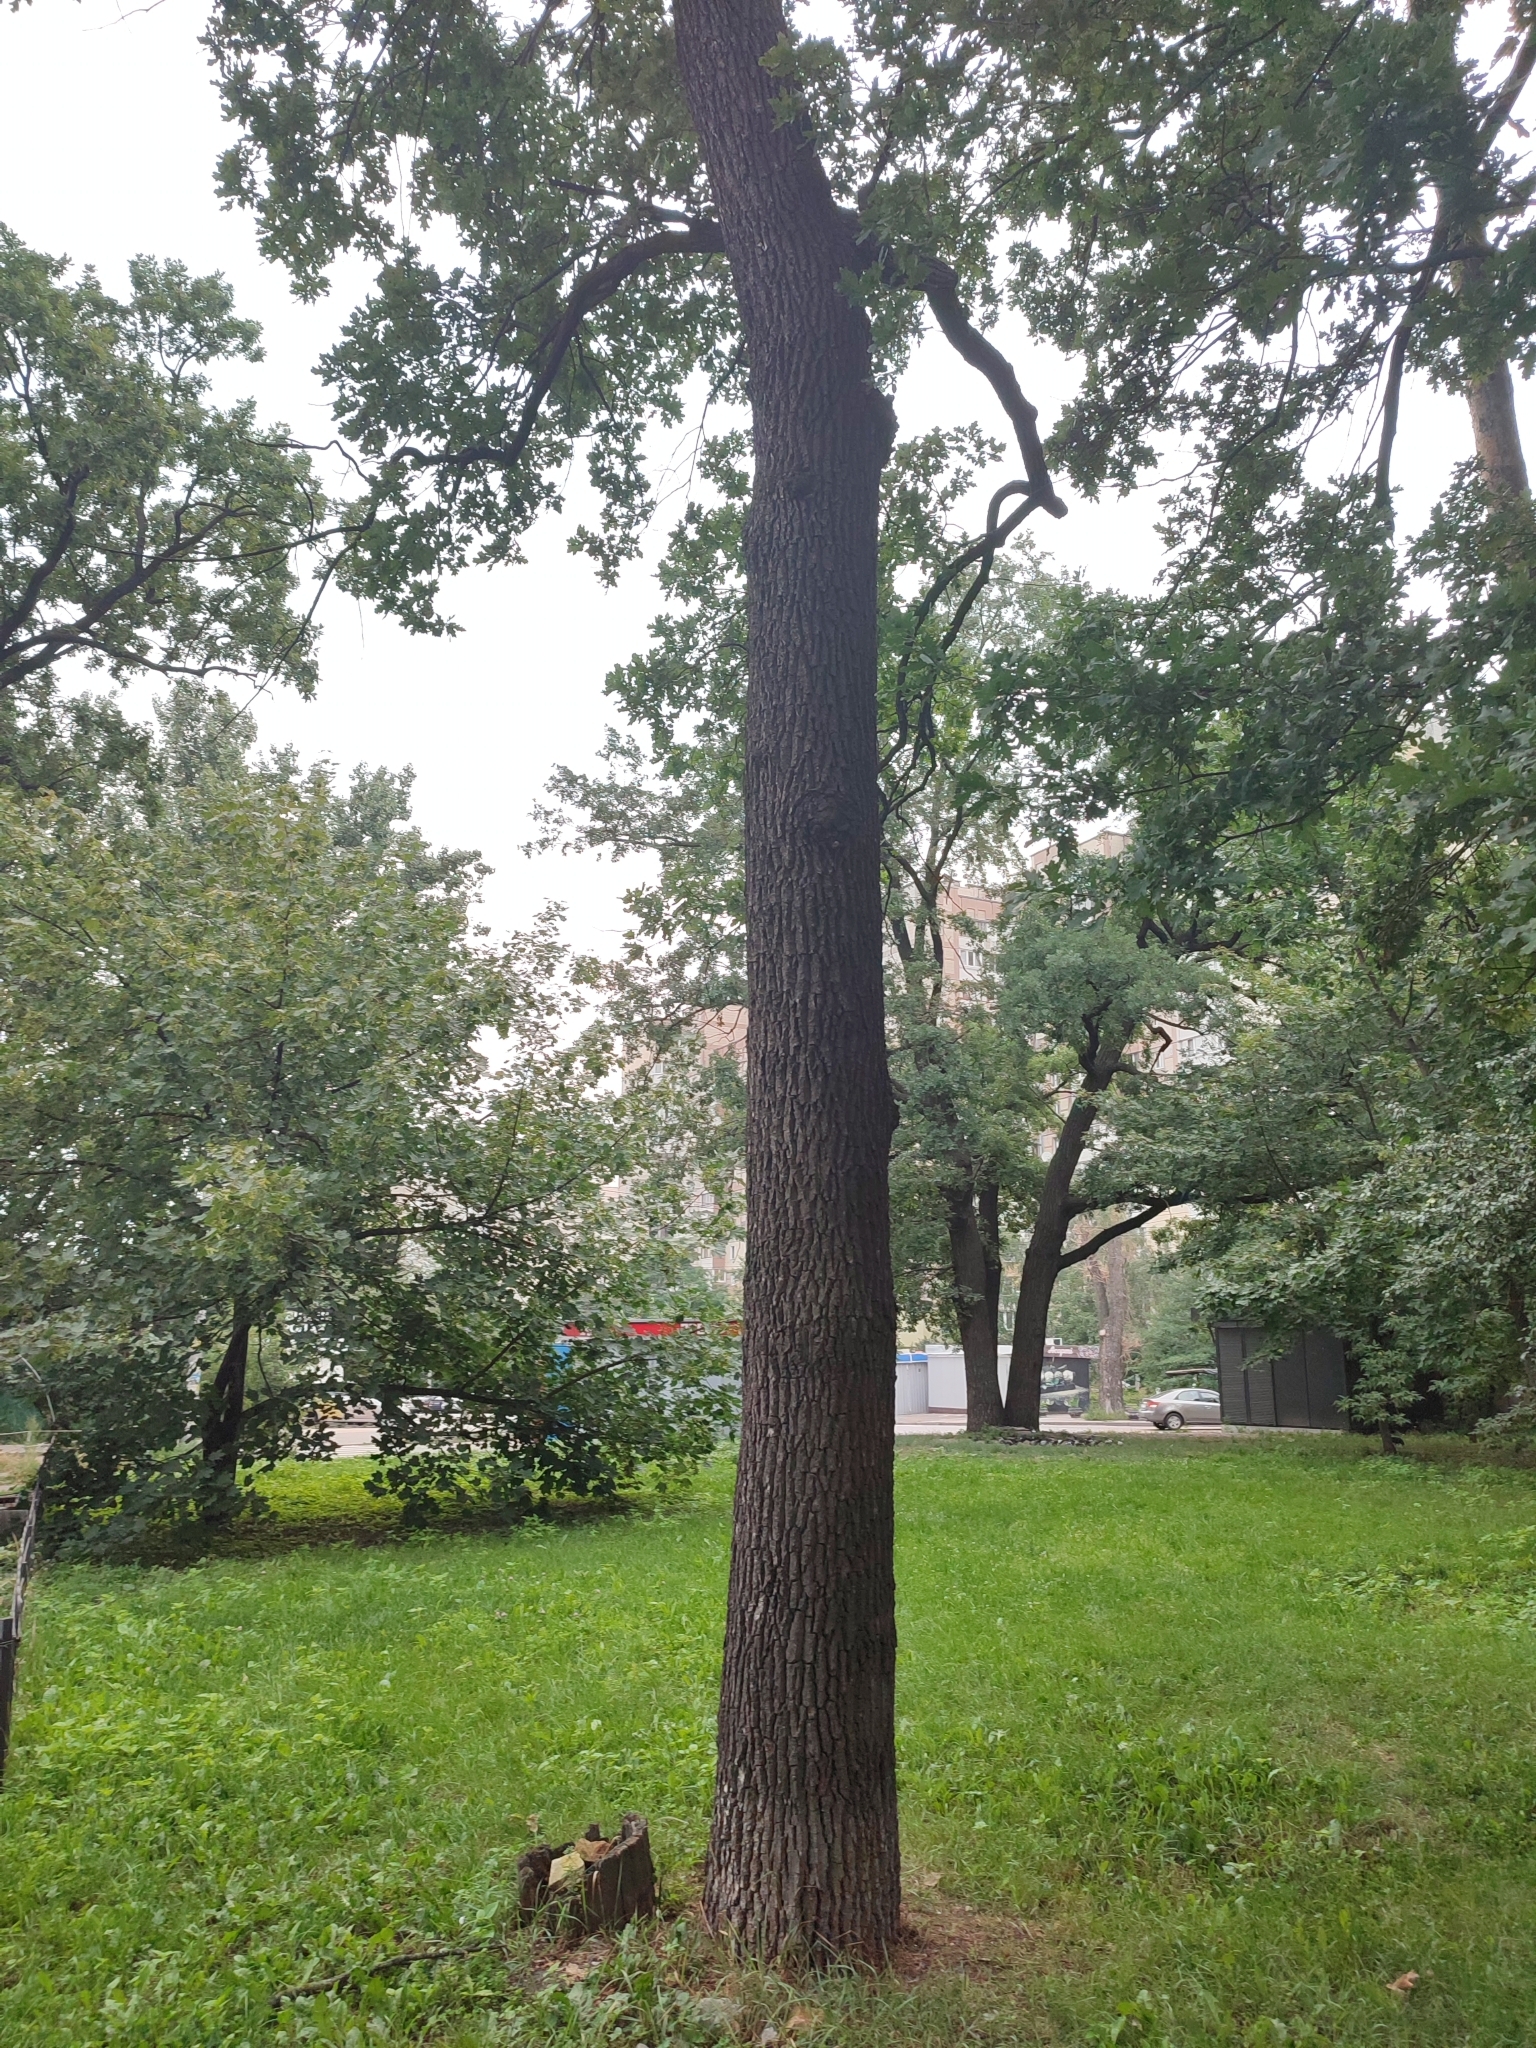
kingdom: Plantae
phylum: Tracheophyta
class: Magnoliopsida
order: Fagales
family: Fagaceae
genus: Quercus
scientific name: Quercus robur
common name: Pedunculate oak
